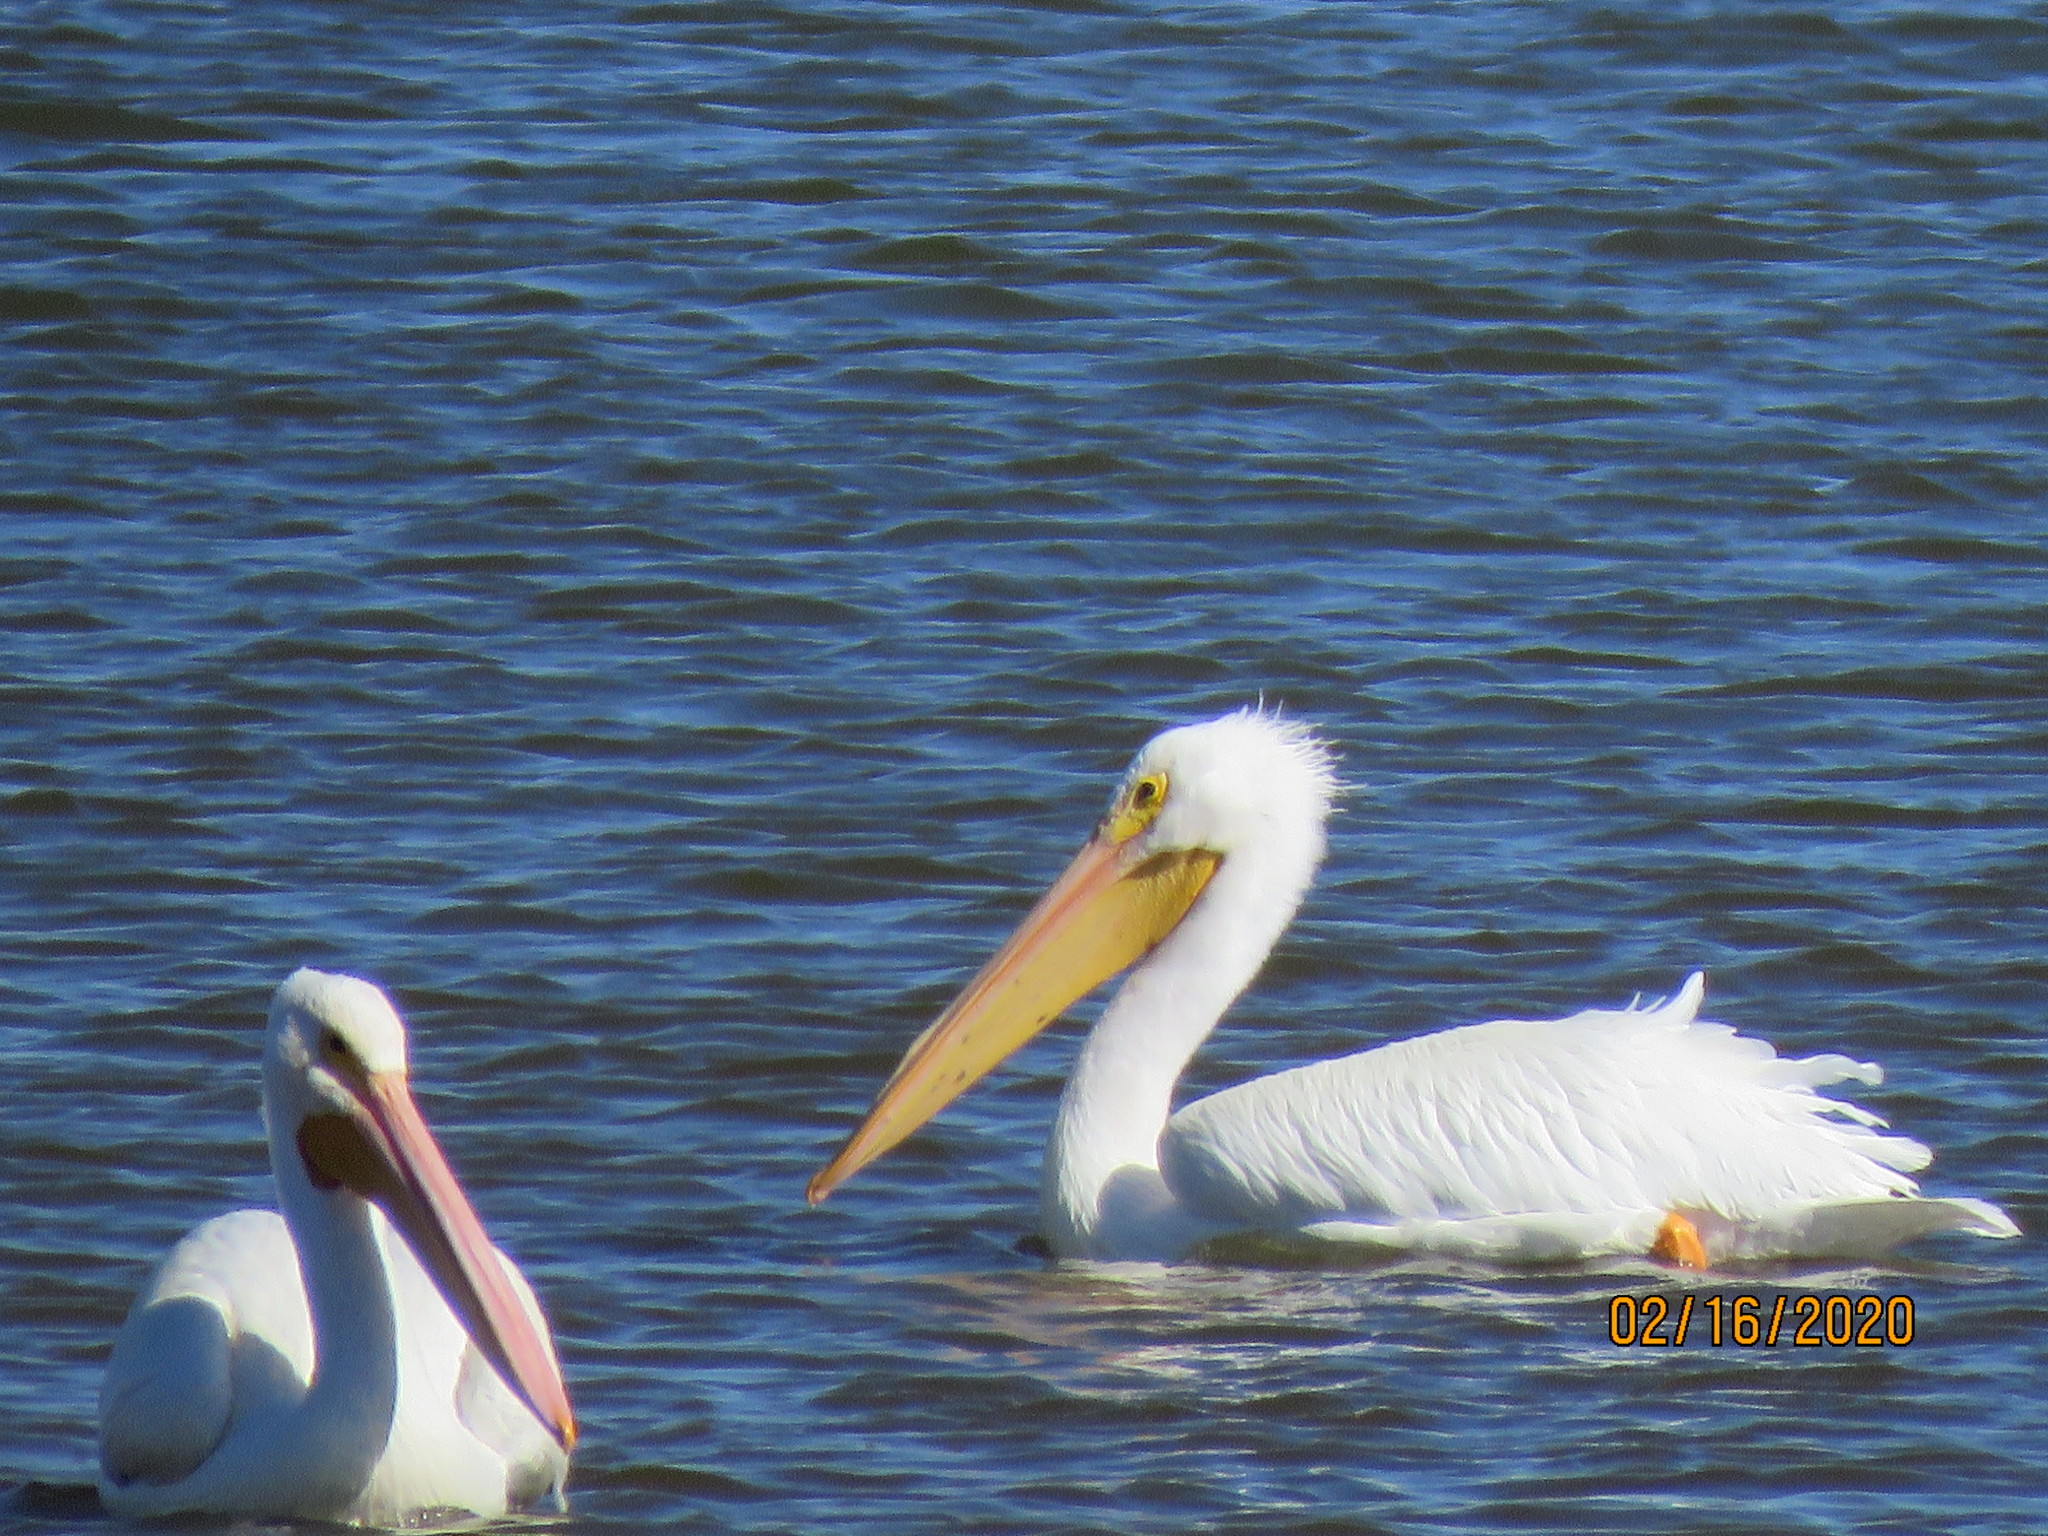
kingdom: Animalia
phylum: Chordata
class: Aves
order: Pelecaniformes
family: Pelecanidae
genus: Pelecanus
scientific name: Pelecanus erythrorhynchos
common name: American white pelican
